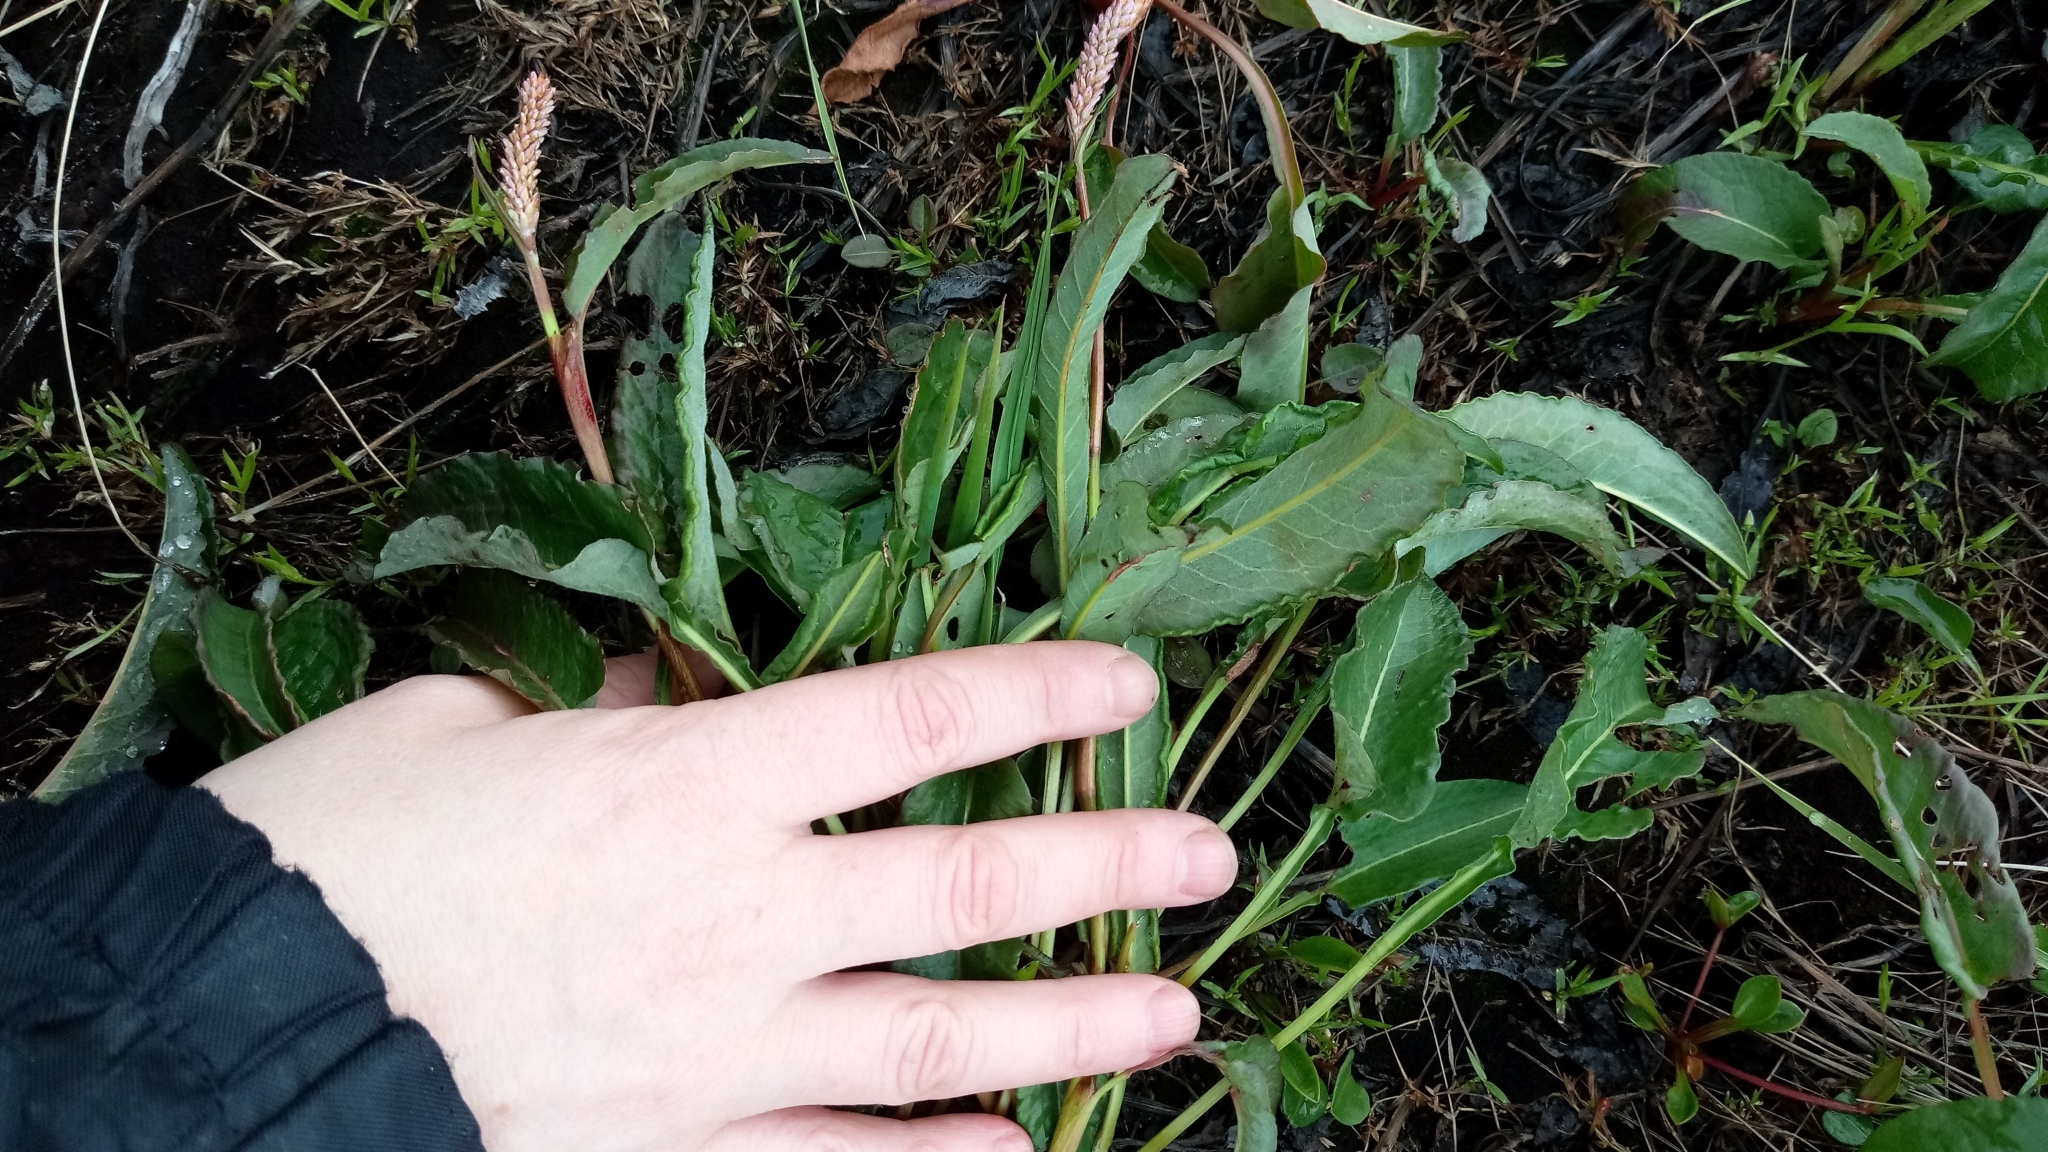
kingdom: Plantae
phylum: Tracheophyta
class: Magnoliopsida
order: Caryophyllales
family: Polygonaceae
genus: Bistorta
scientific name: Bistorta officinalis
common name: Common bistort
